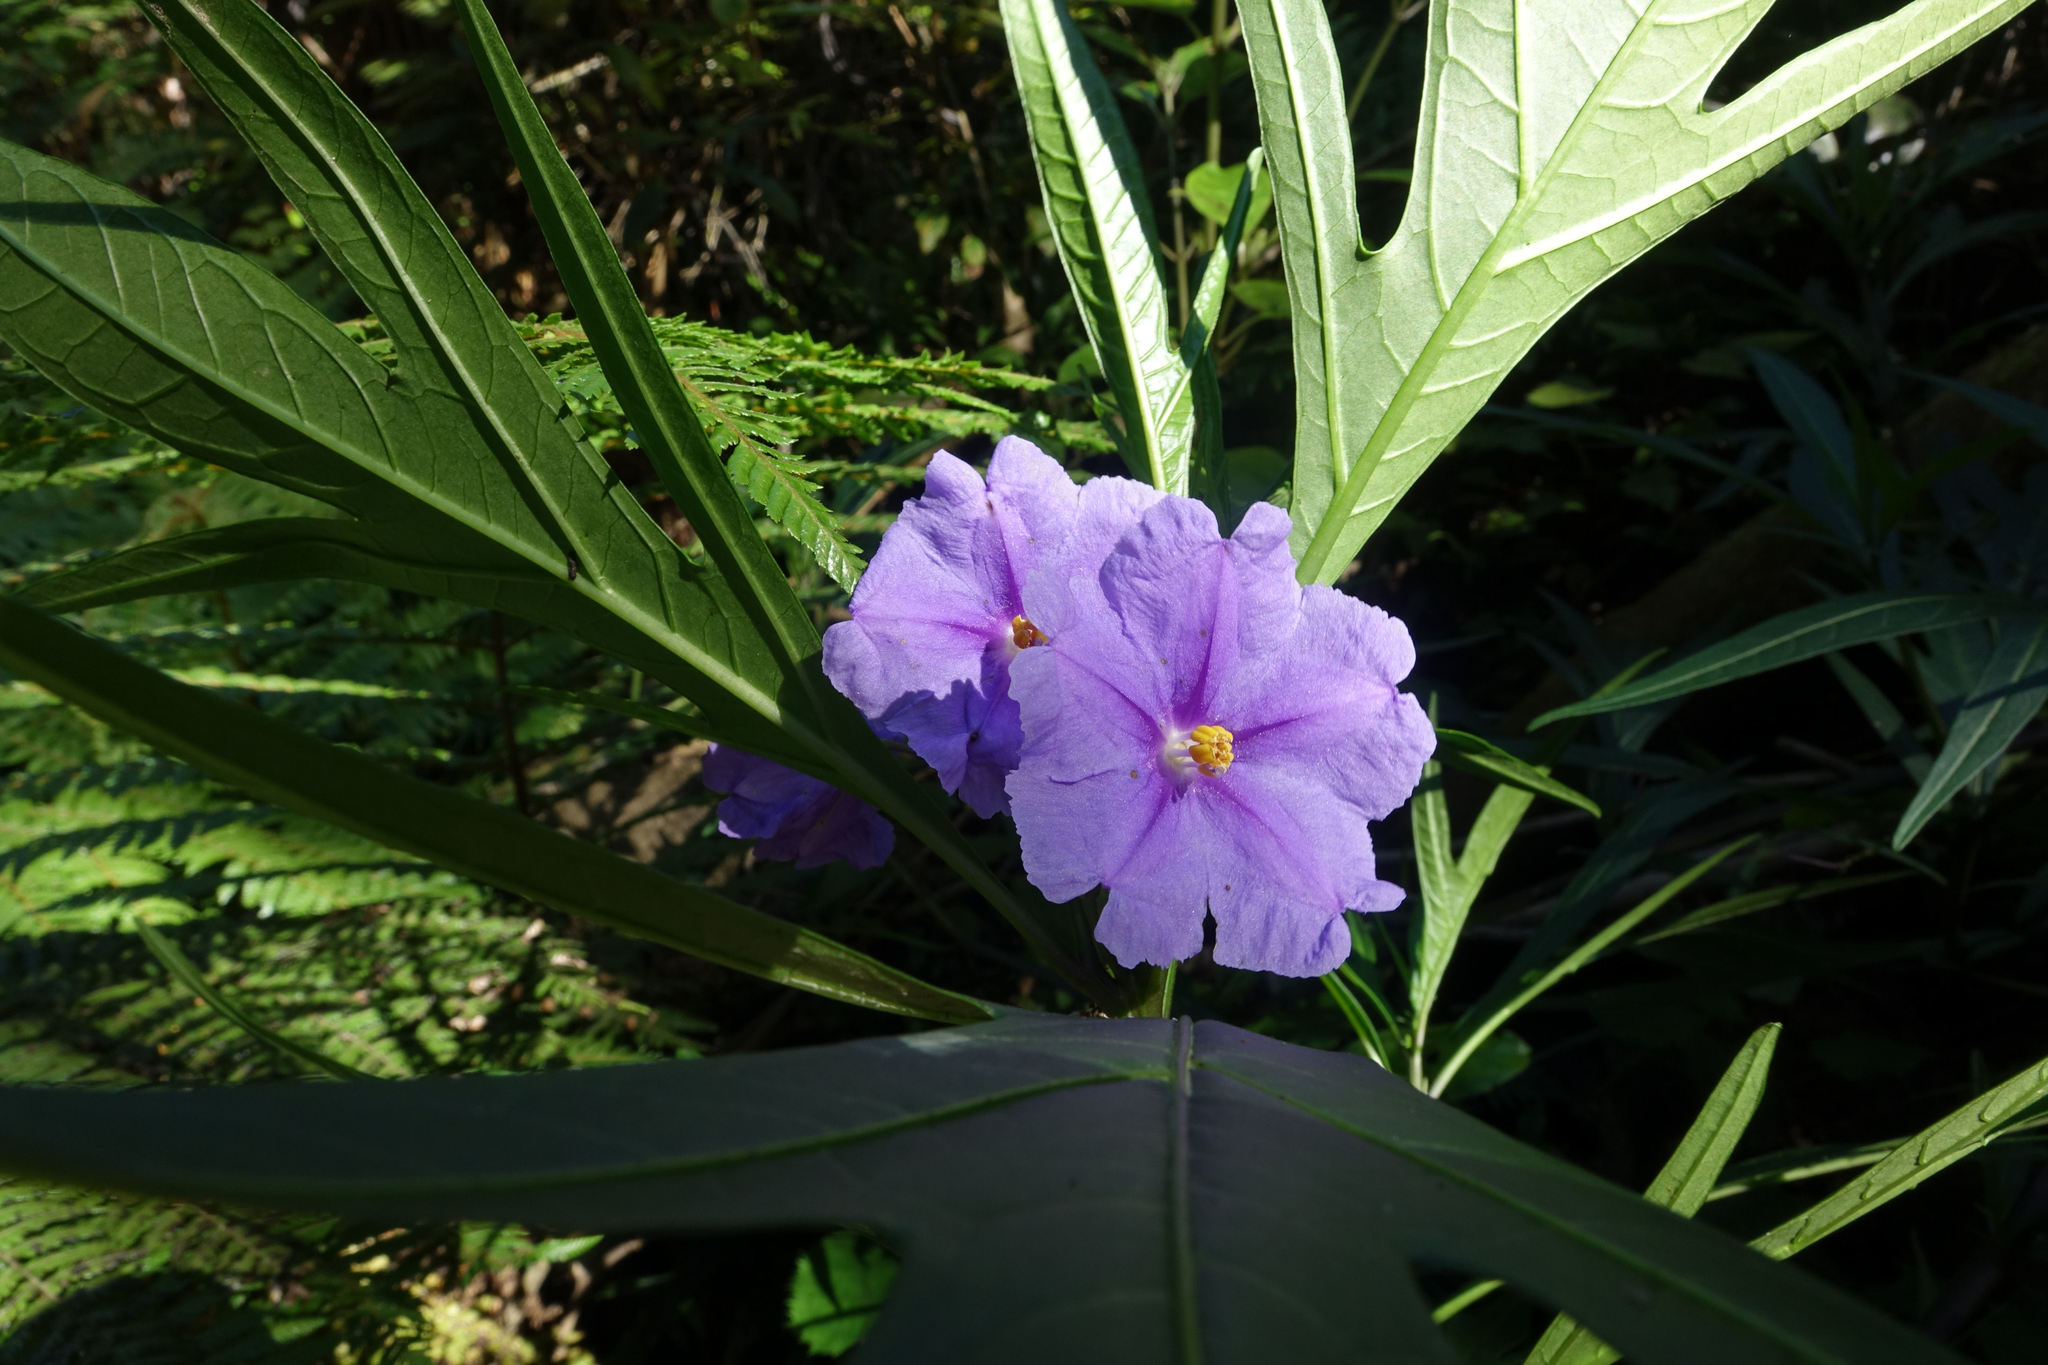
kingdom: Plantae
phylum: Tracheophyta
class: Magnoliopsida
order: Solanales
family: Solanaceae
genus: Solanum
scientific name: Solanum laciniatum
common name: Kangaroo-apple
